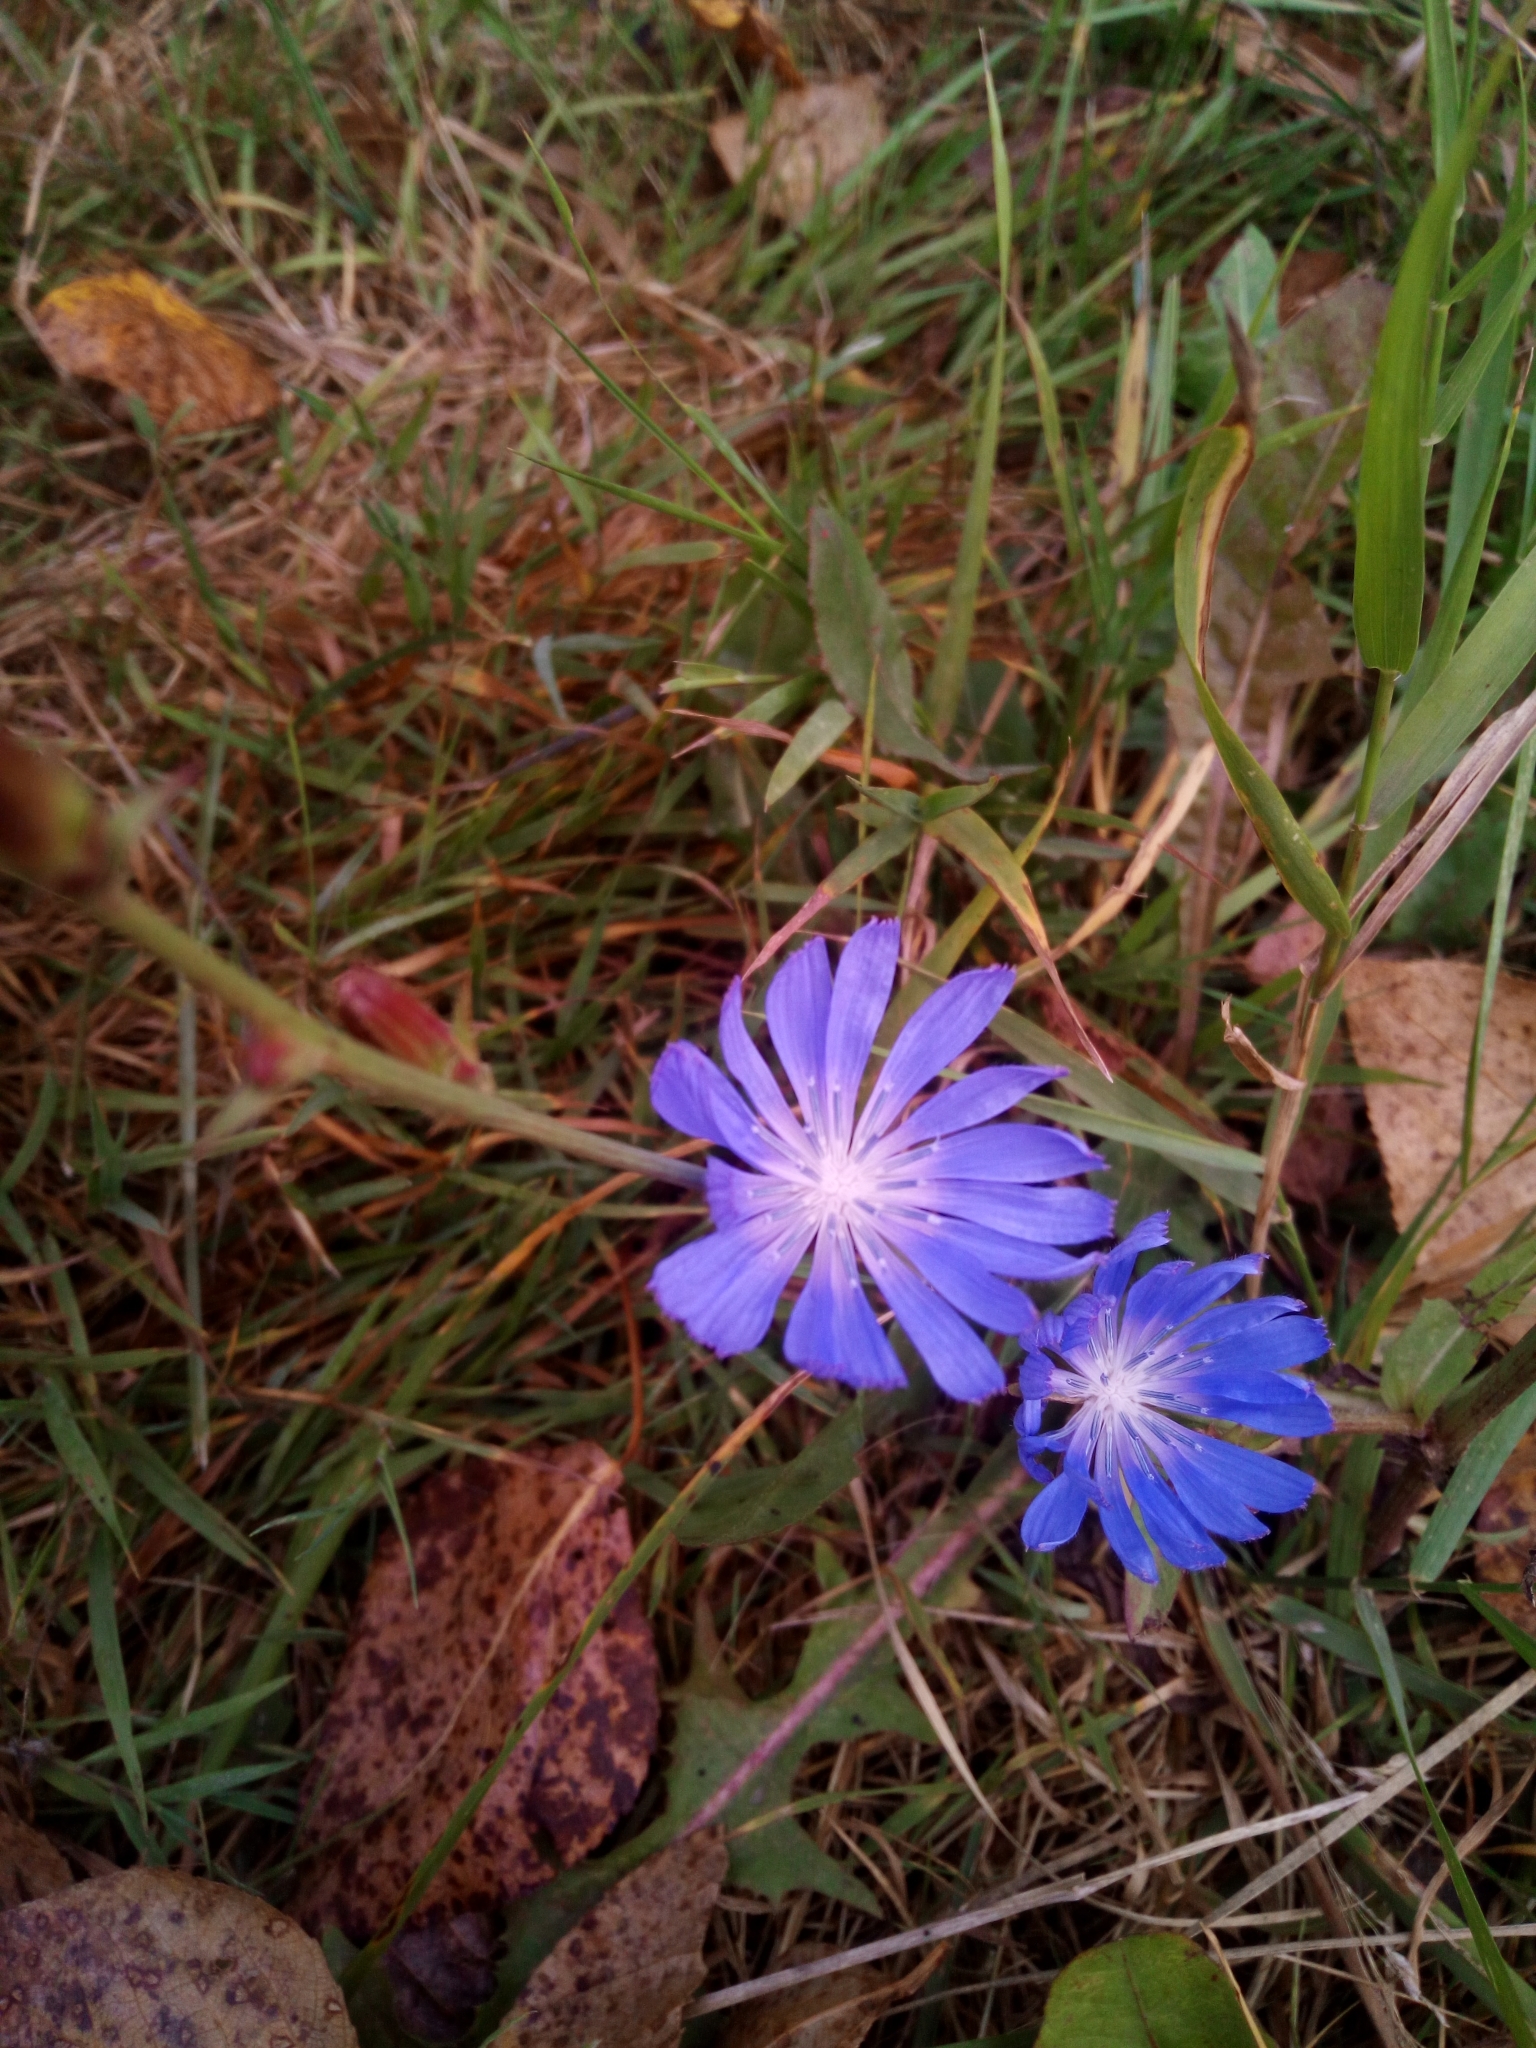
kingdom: Plantae
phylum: Tracheophyta
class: Magnoliopsida
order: Asterales
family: Asteraceae
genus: Cichorium
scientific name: Cichorium intybus
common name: Chicory
